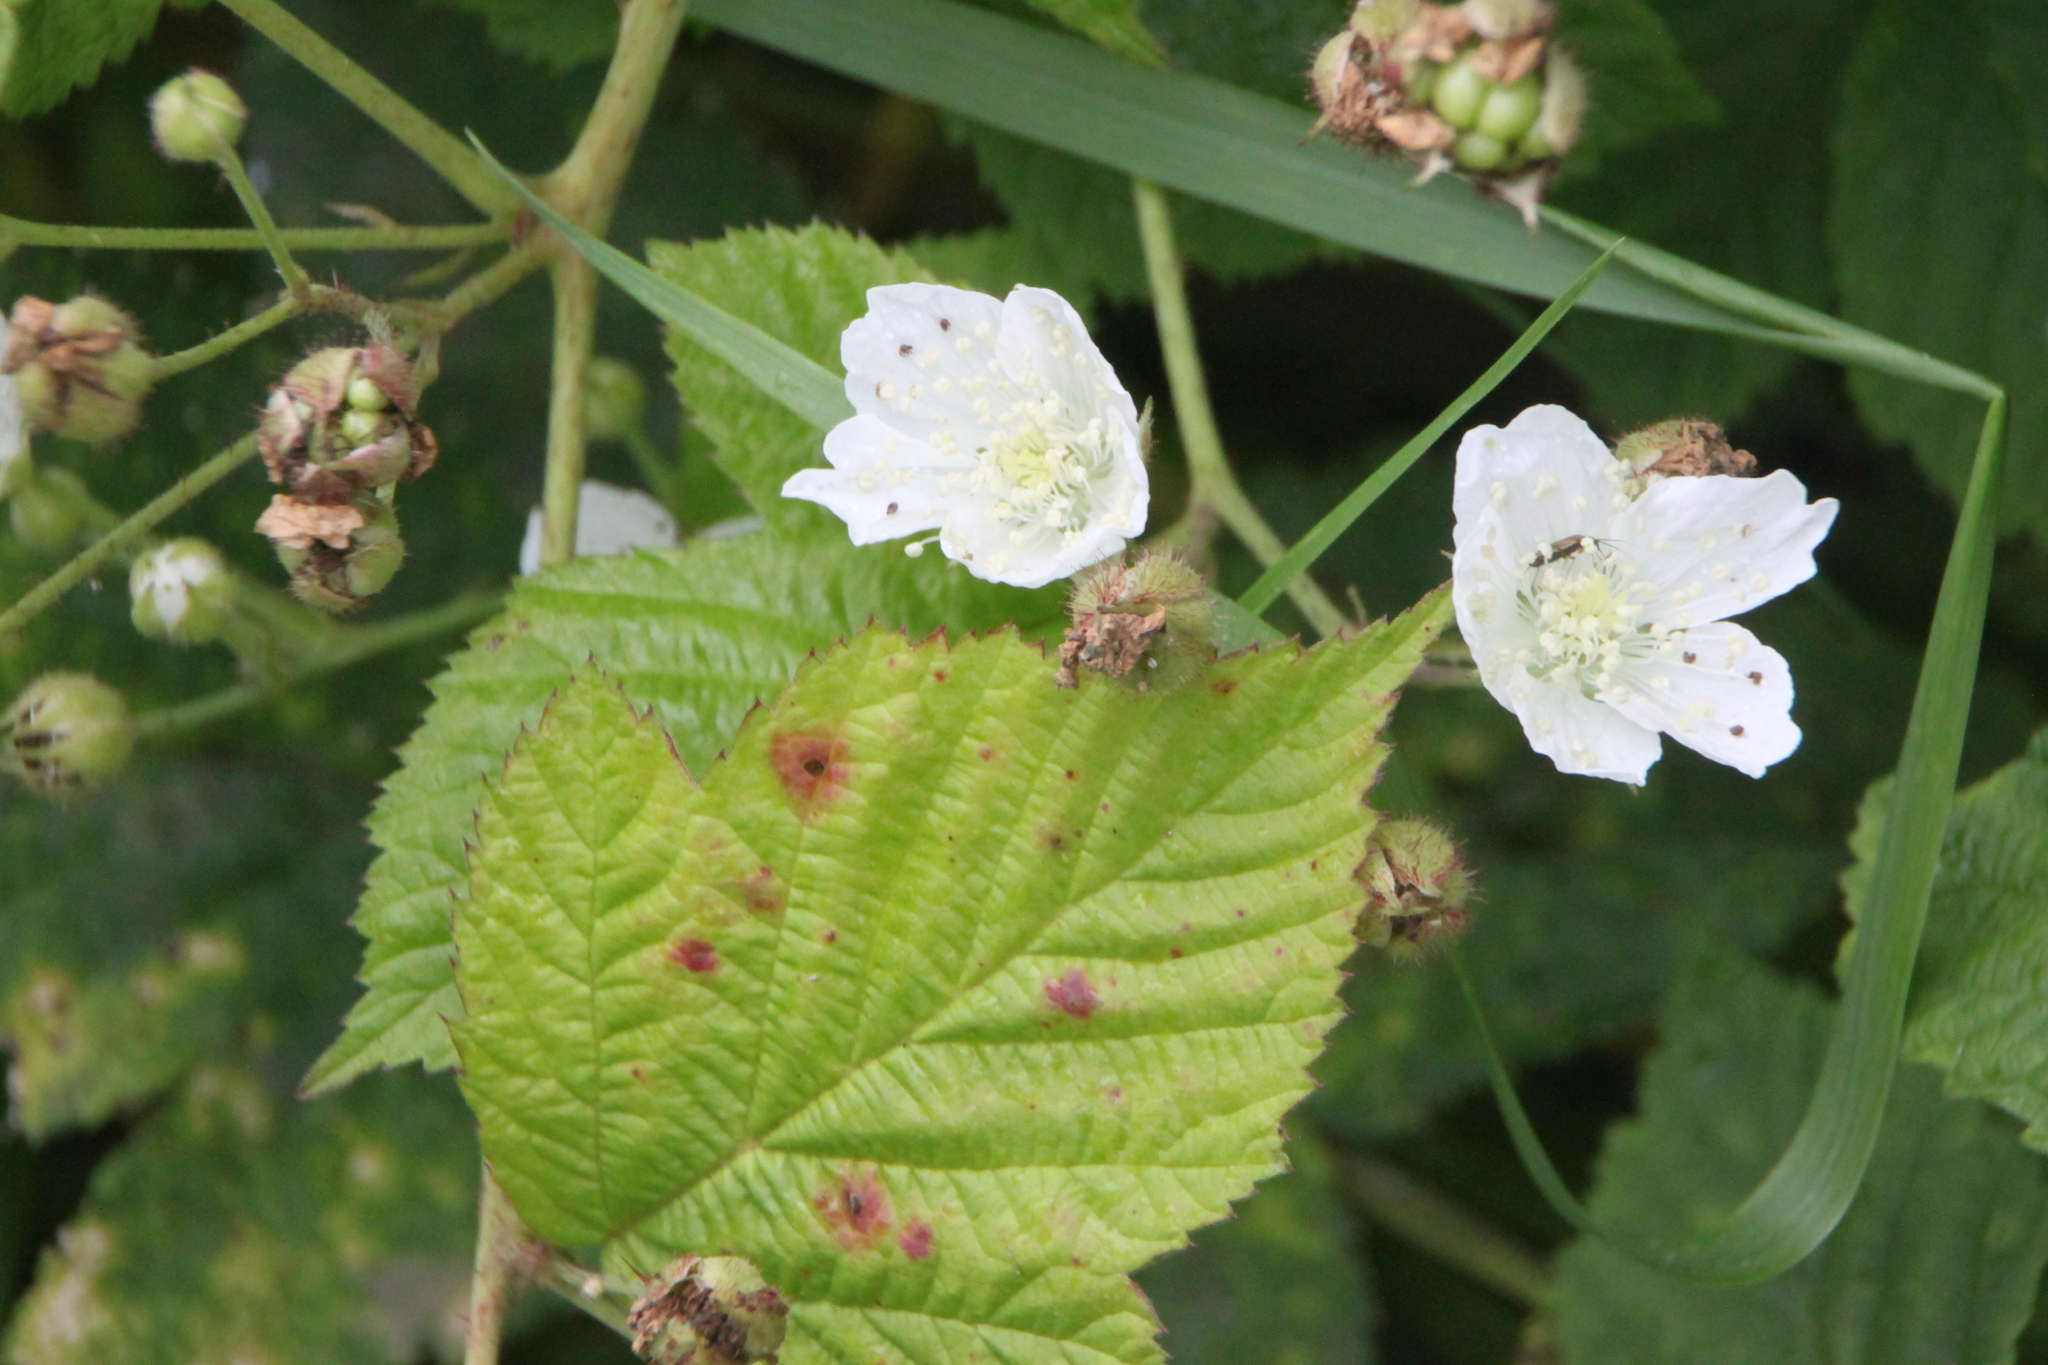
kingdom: Plantae
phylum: Tracheophyta
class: Magnoliopsida
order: Rosales
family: Rosaceae
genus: Rubus
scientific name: Rubus caesius
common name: Dewberry
